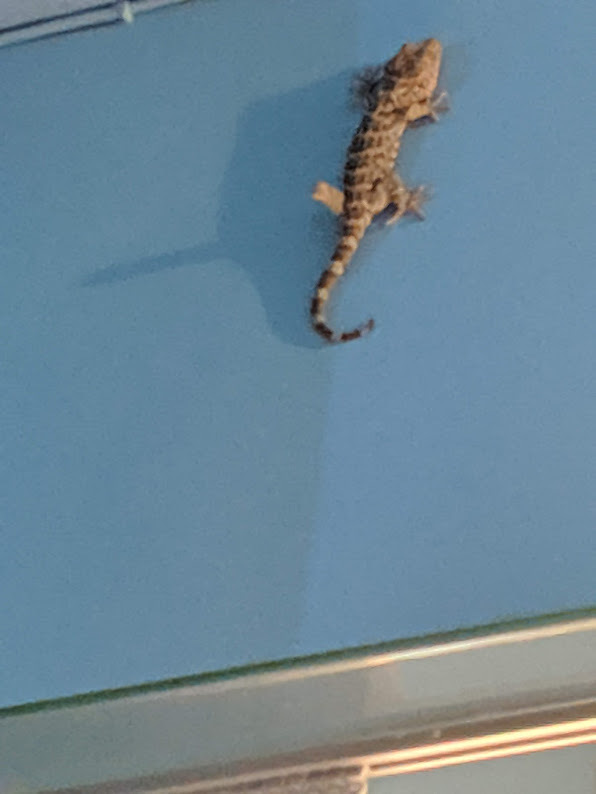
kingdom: Animalia
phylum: Chordata
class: Squamata
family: Gekkonidae
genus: Gekko
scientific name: Gekko gecko
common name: Tokay gecko
